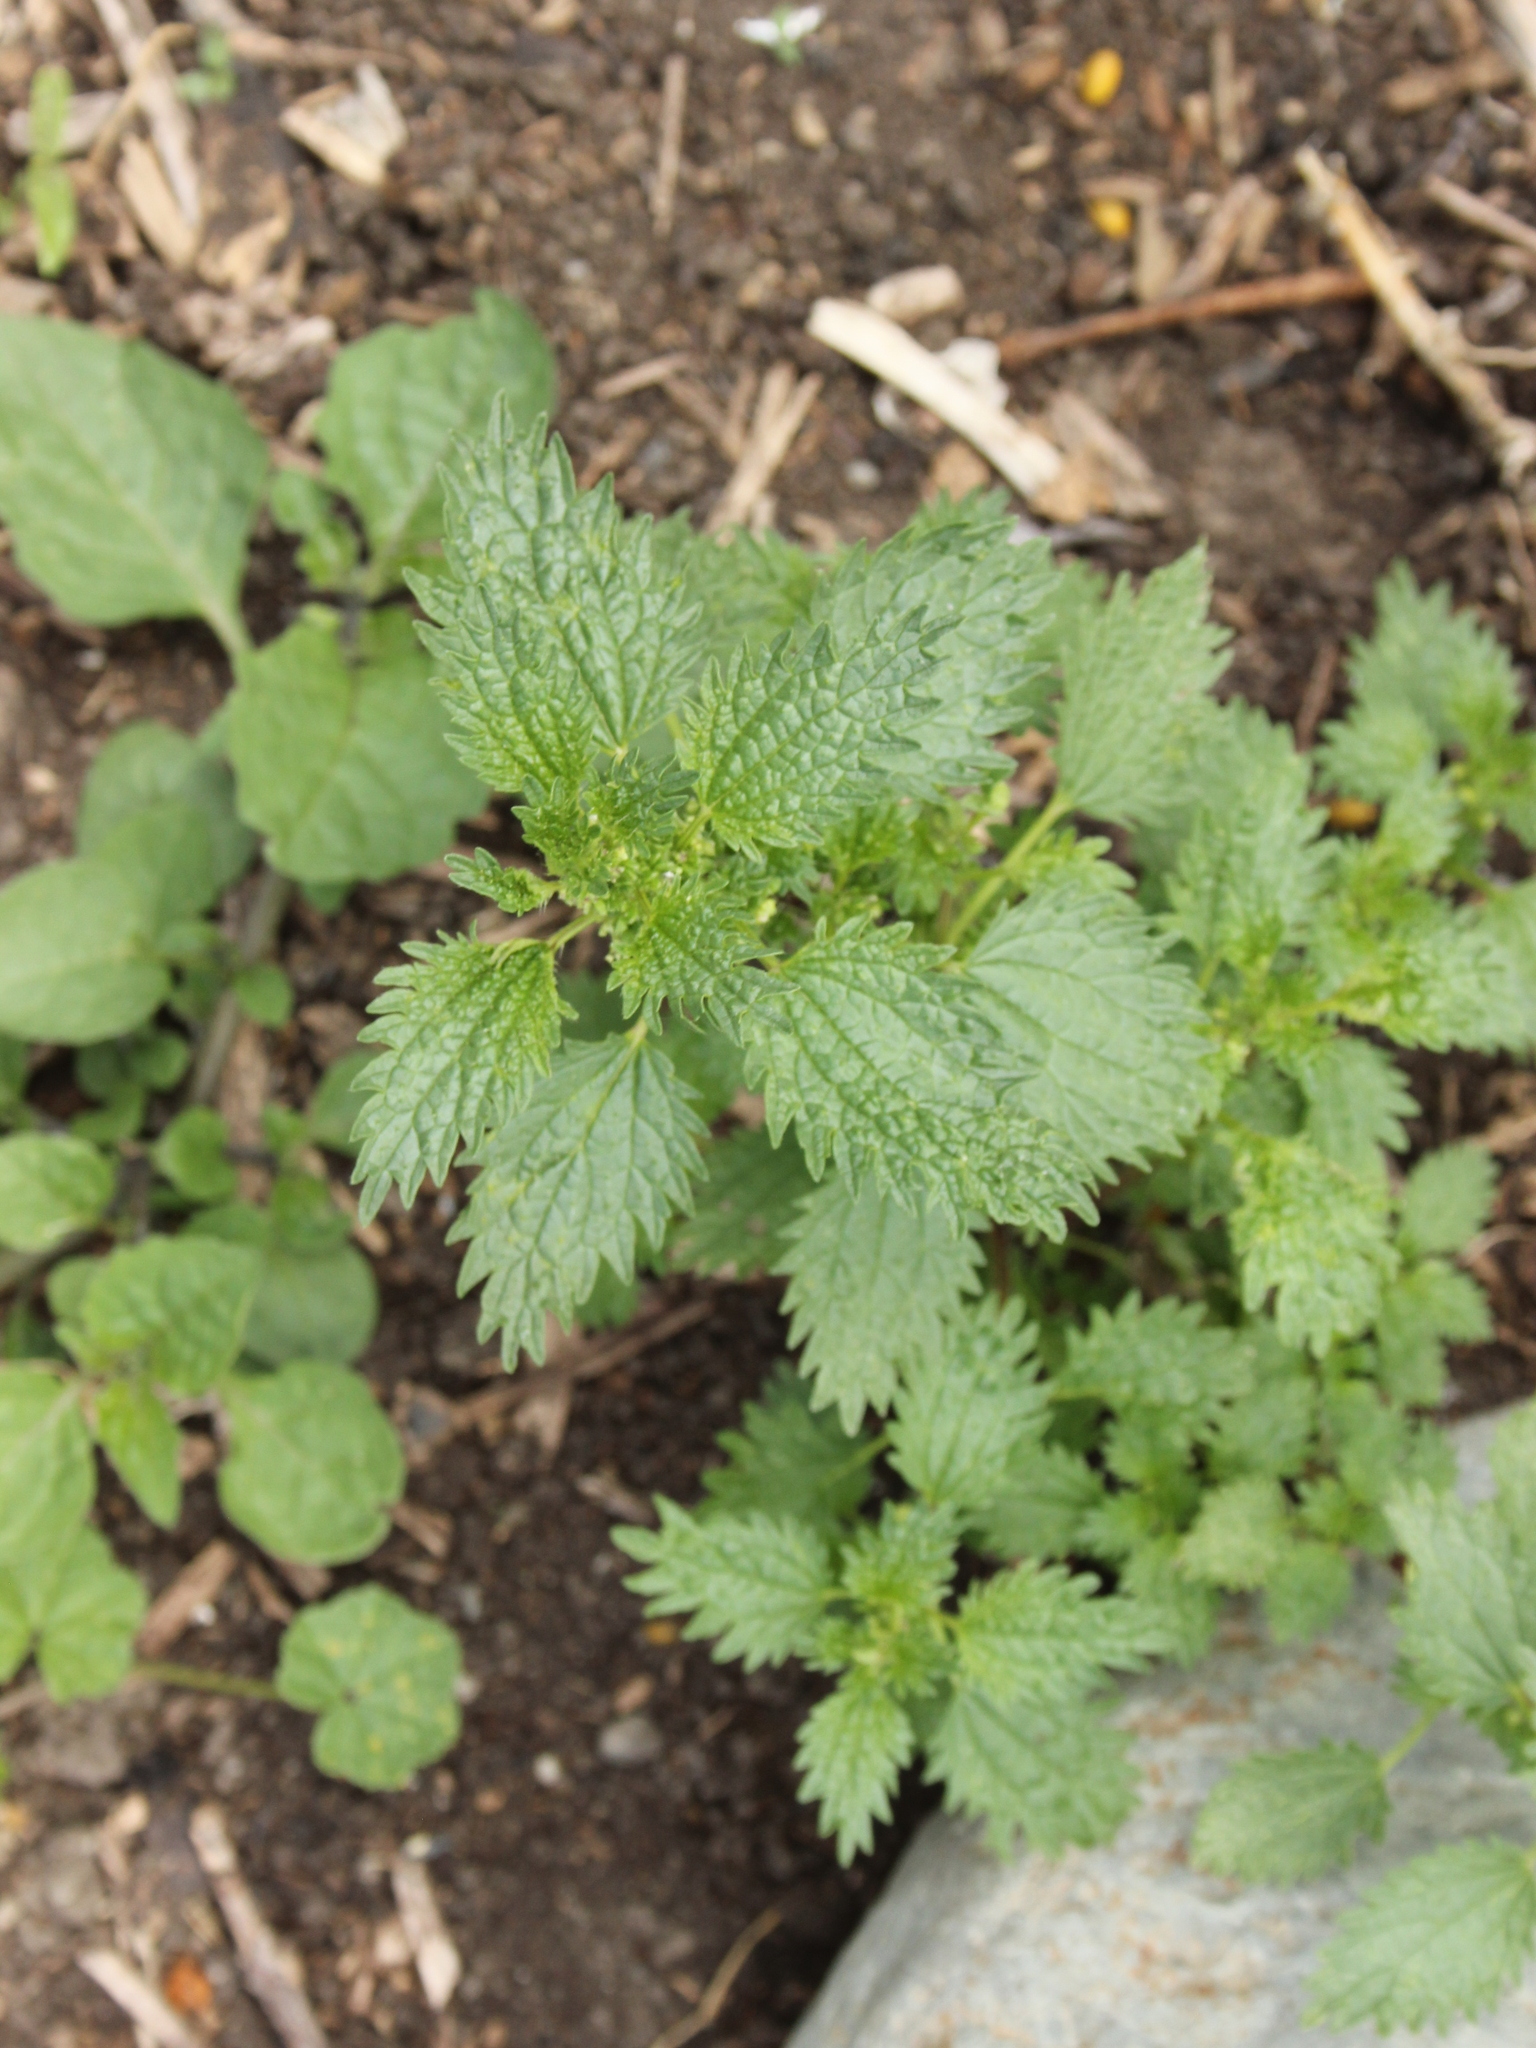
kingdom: Plantae
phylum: Tracheophyta
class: Magnoliopsida
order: Rosales
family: Urticaceae
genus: Urtica
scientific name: Urtica urens
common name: Dwarf nettle
